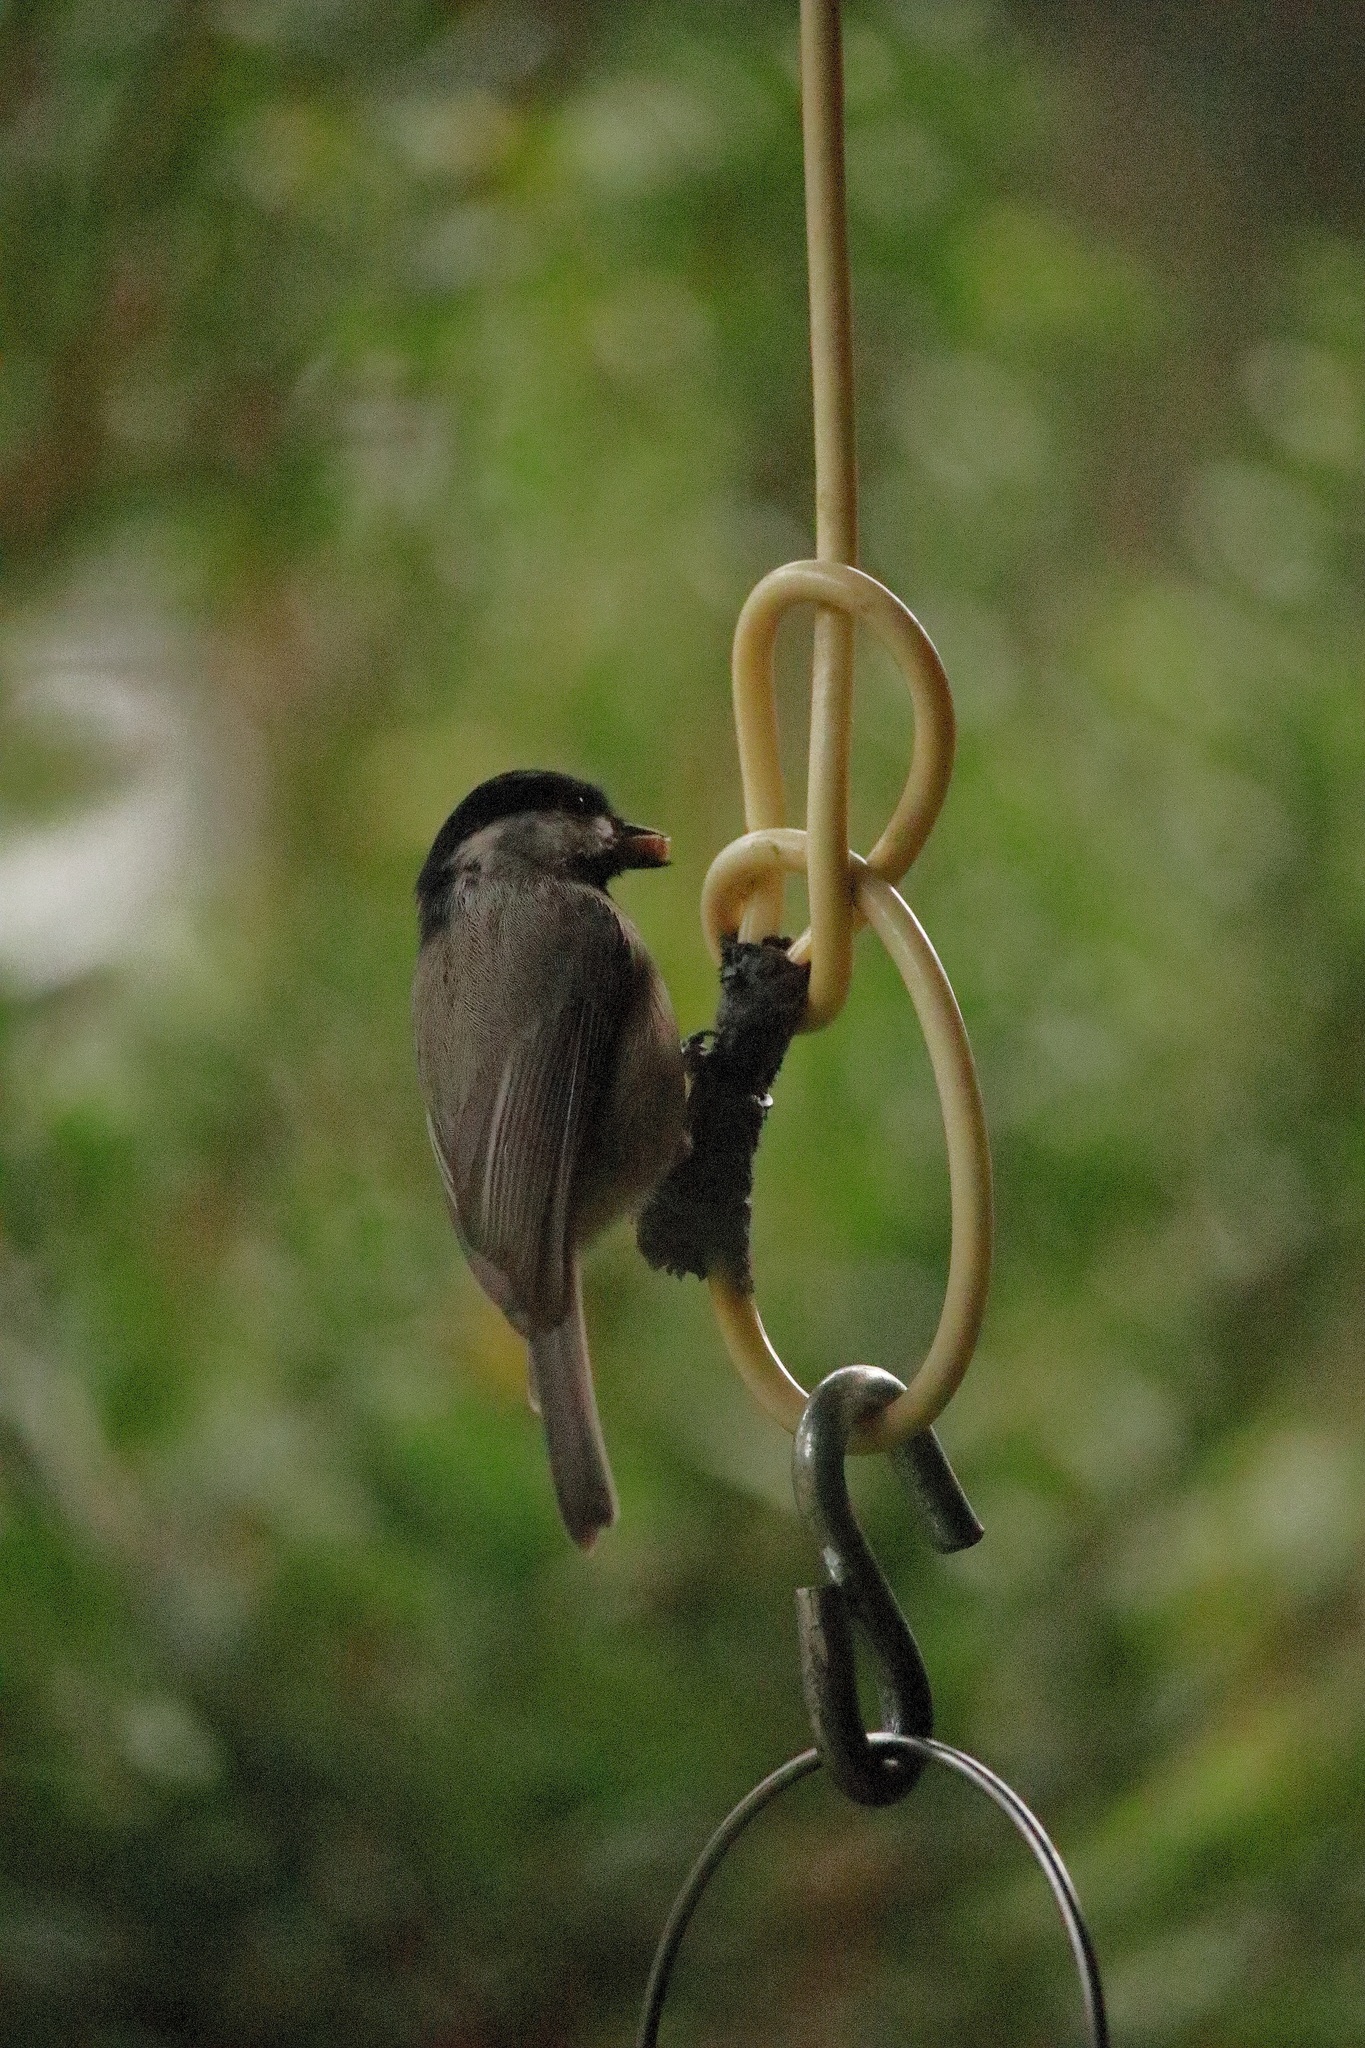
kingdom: Animalia
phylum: Chordata
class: Aves
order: Passeriformes
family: Paridae
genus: Poecile
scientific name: Poecile carolinensis
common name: Carolina chickadee
